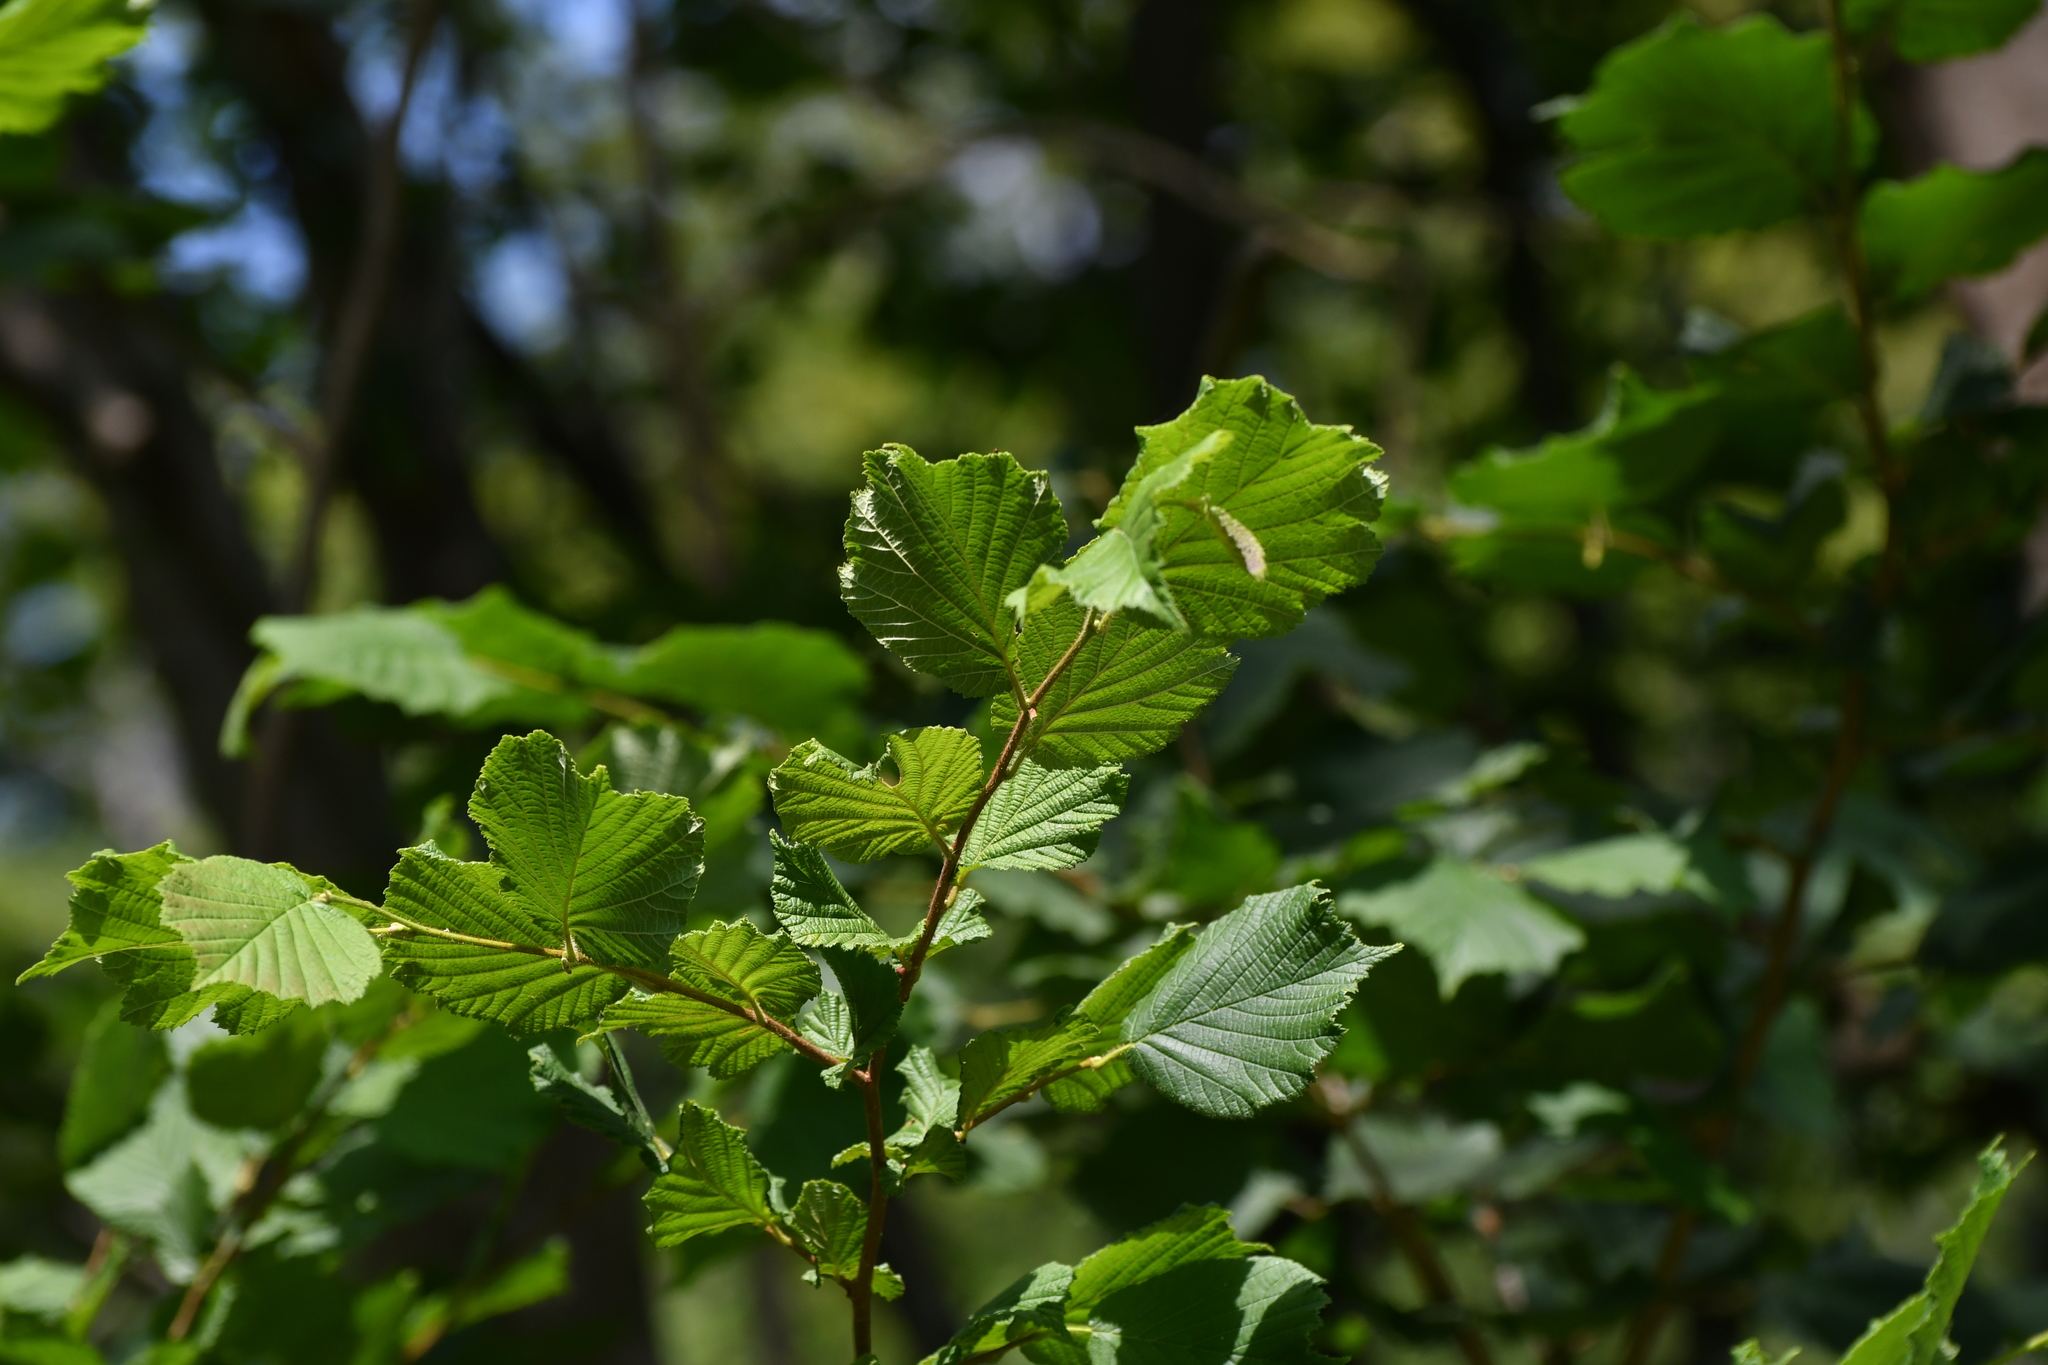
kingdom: Plantae
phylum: Tracheophyta
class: Magnoliopsida
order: Fagales
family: Betulaceae
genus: Corylus
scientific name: Corylus avellana
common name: European hazel
